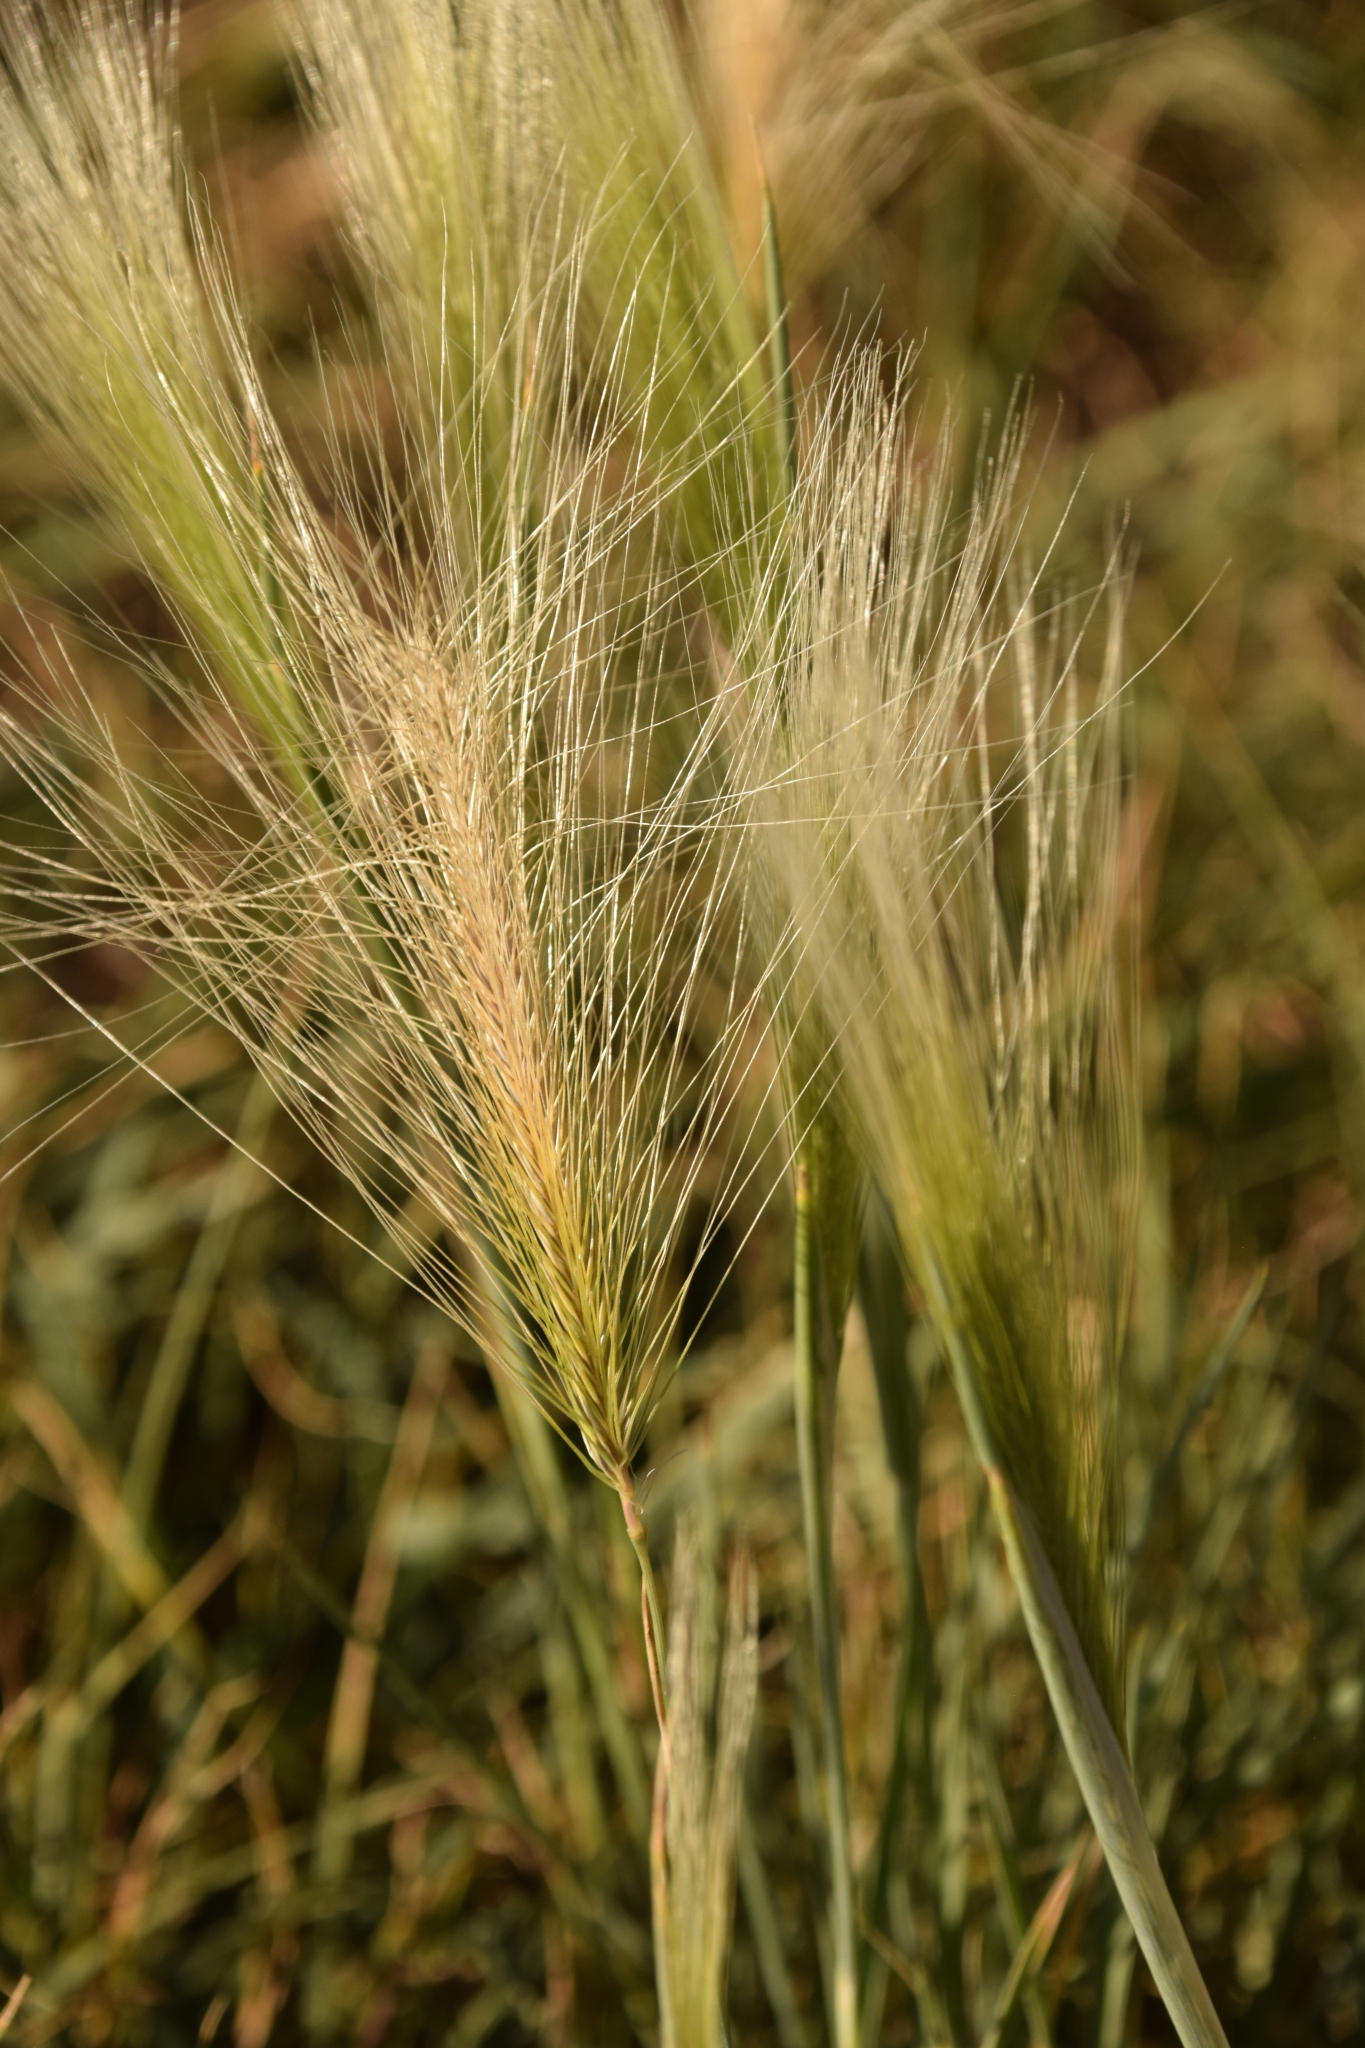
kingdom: Plantae
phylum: Tracheophyta
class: Liliopsida
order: Poales
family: Poaceae
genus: Hordeum
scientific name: Hordeum jubatum
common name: Foxtail barley
